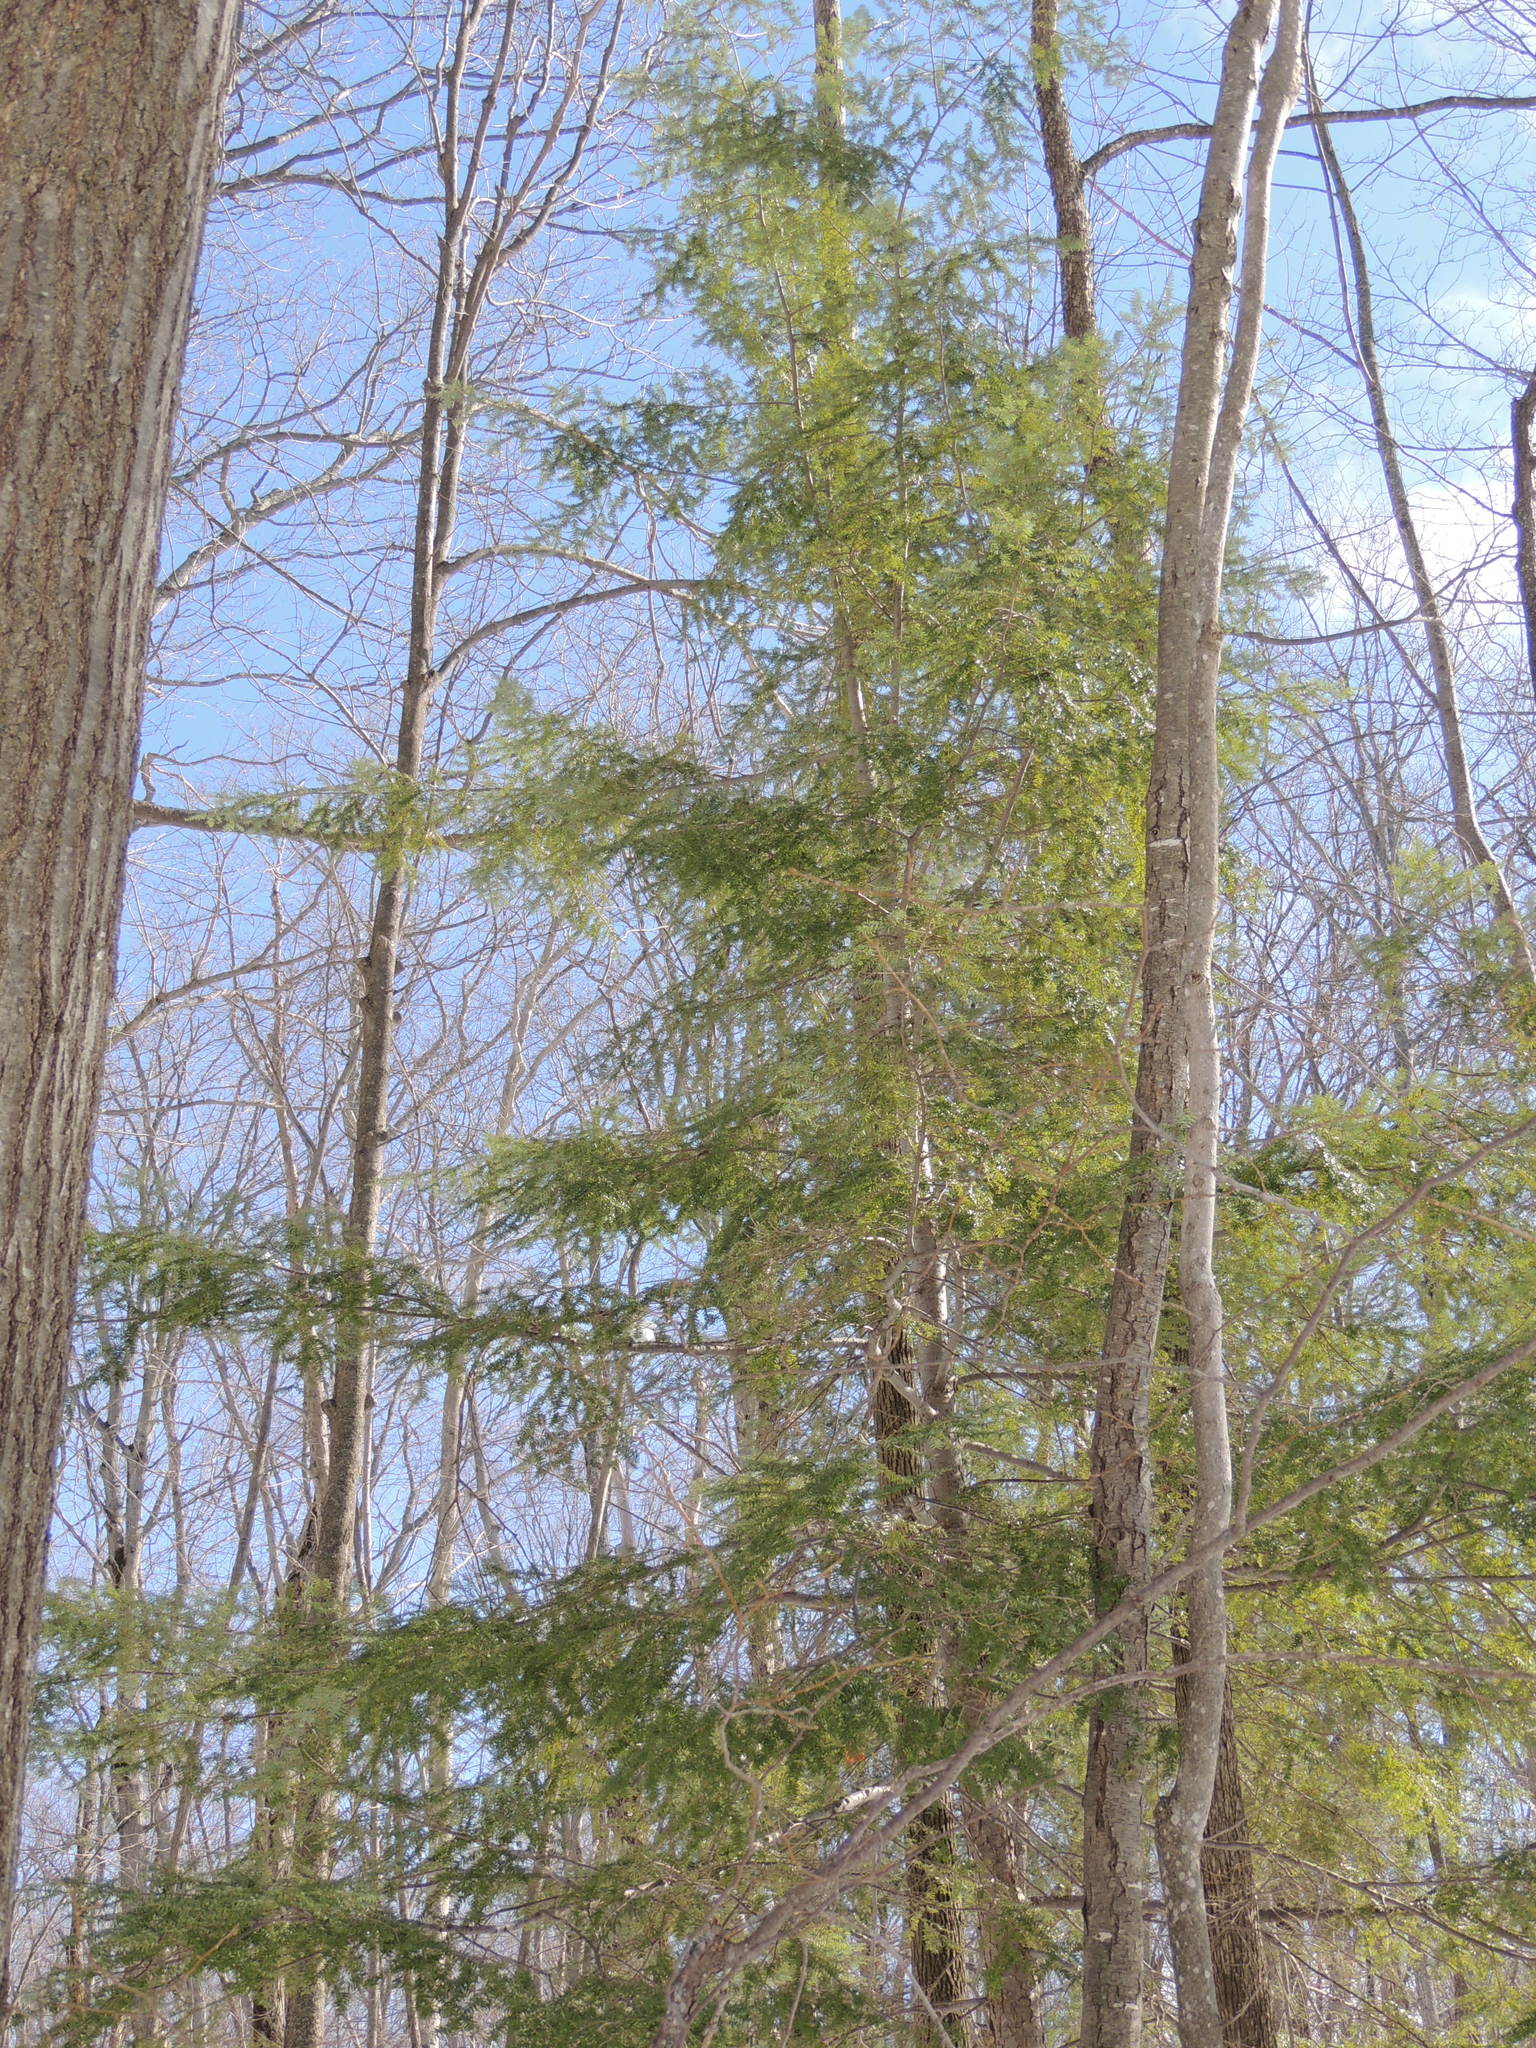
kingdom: Plantae
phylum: Tracheophyta
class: Pinopsida
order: Pinales
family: Pinaceae
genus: Tsuga
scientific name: Tsuga canadensis
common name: Eastern hemlock
